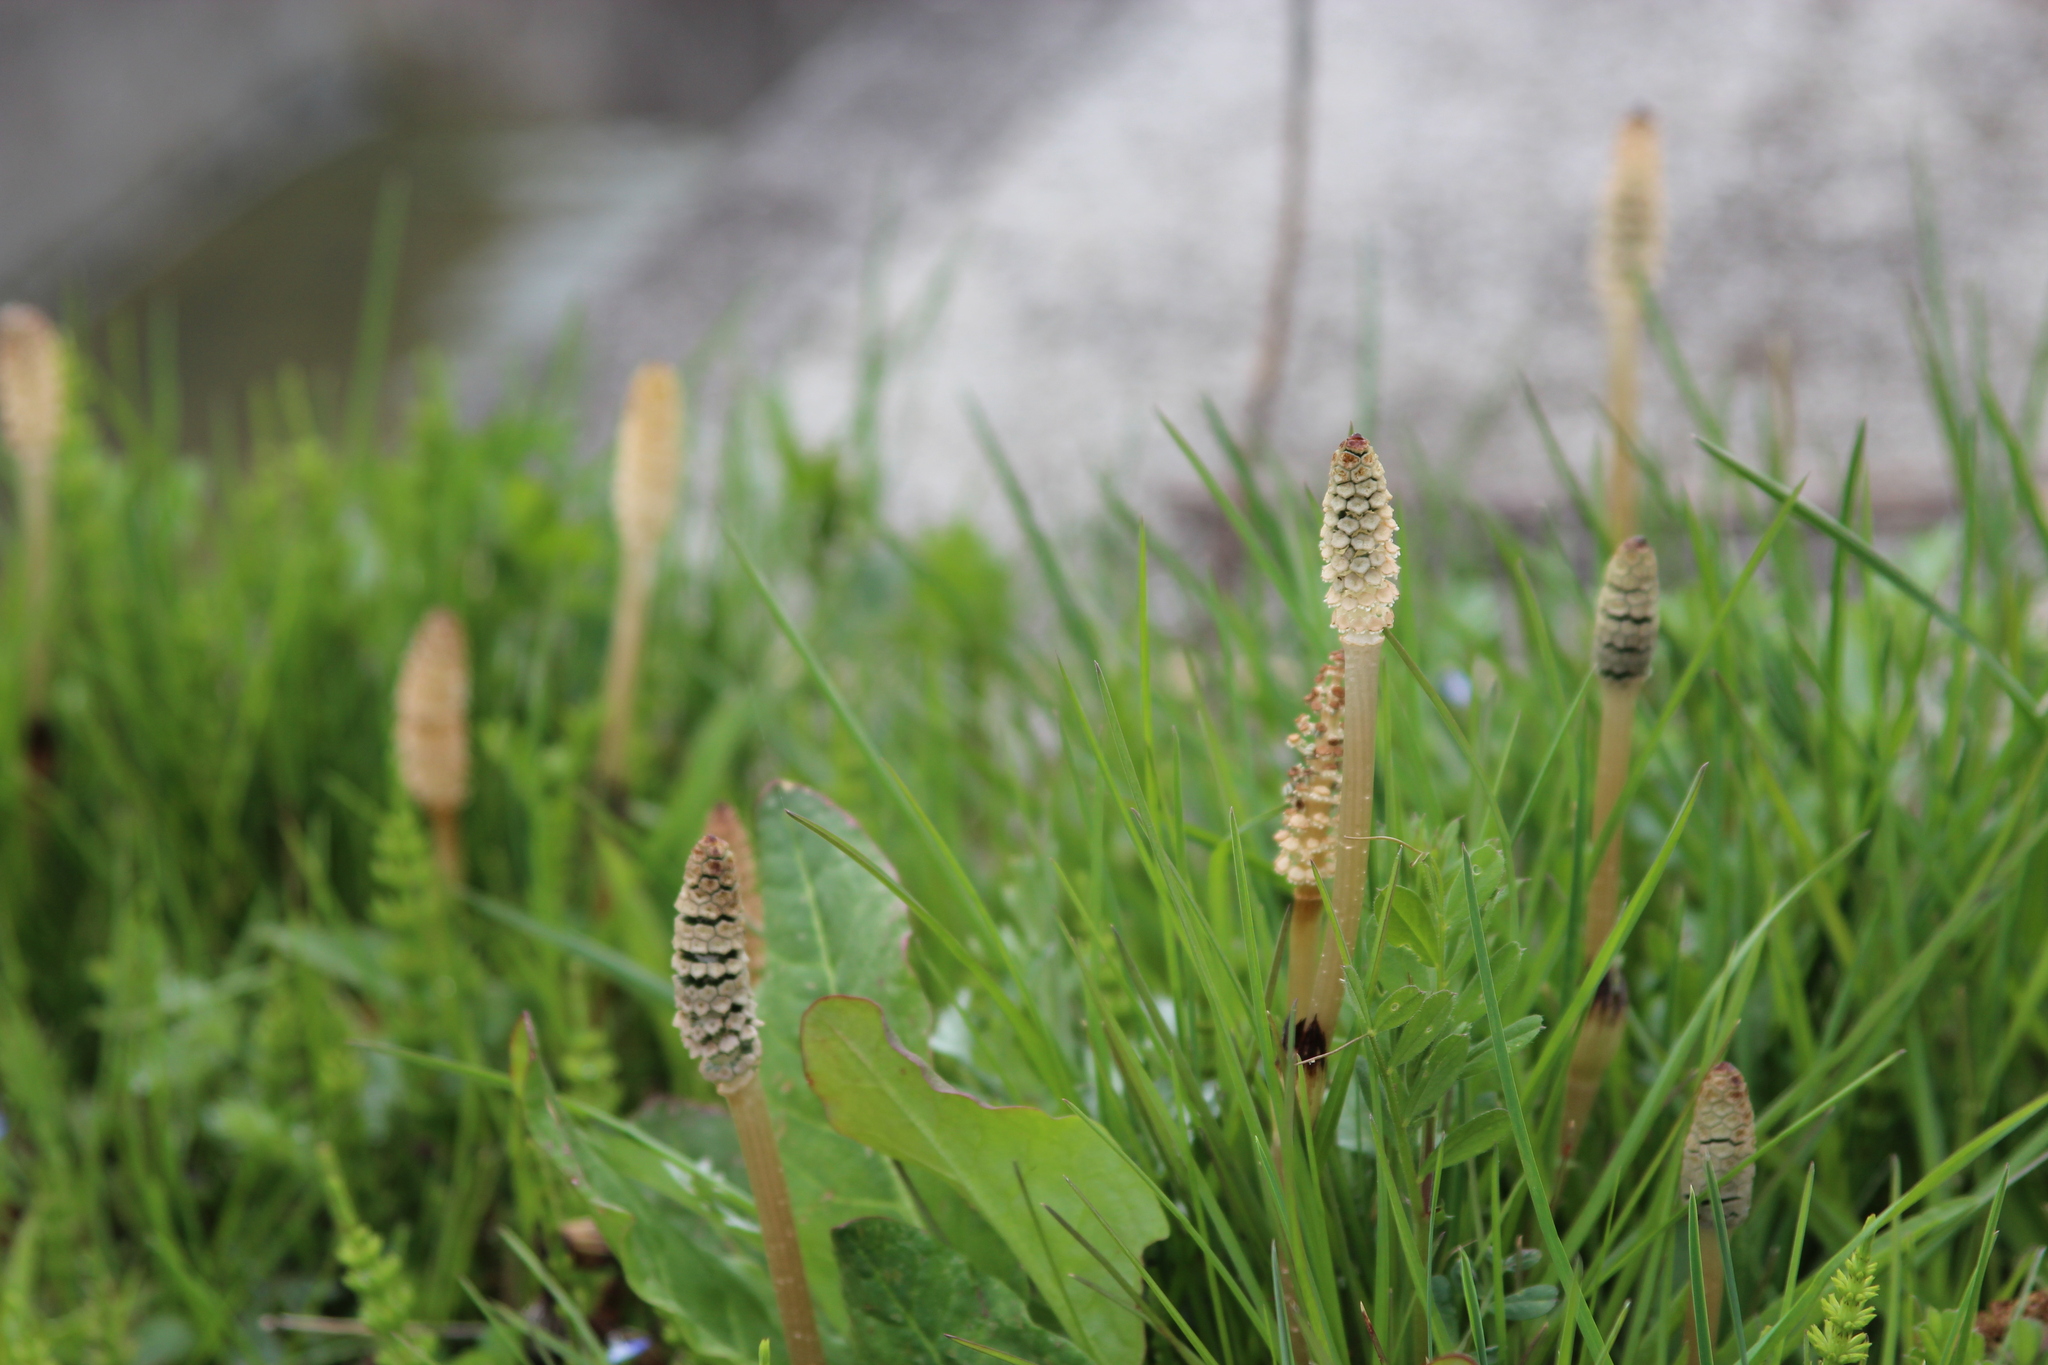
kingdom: Plantae
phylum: Tracheophyta
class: Polypodiopsida
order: Equisetales
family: Equisetaceae
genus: Equisetum
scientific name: Equisetum arvense
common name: Field horsetail
